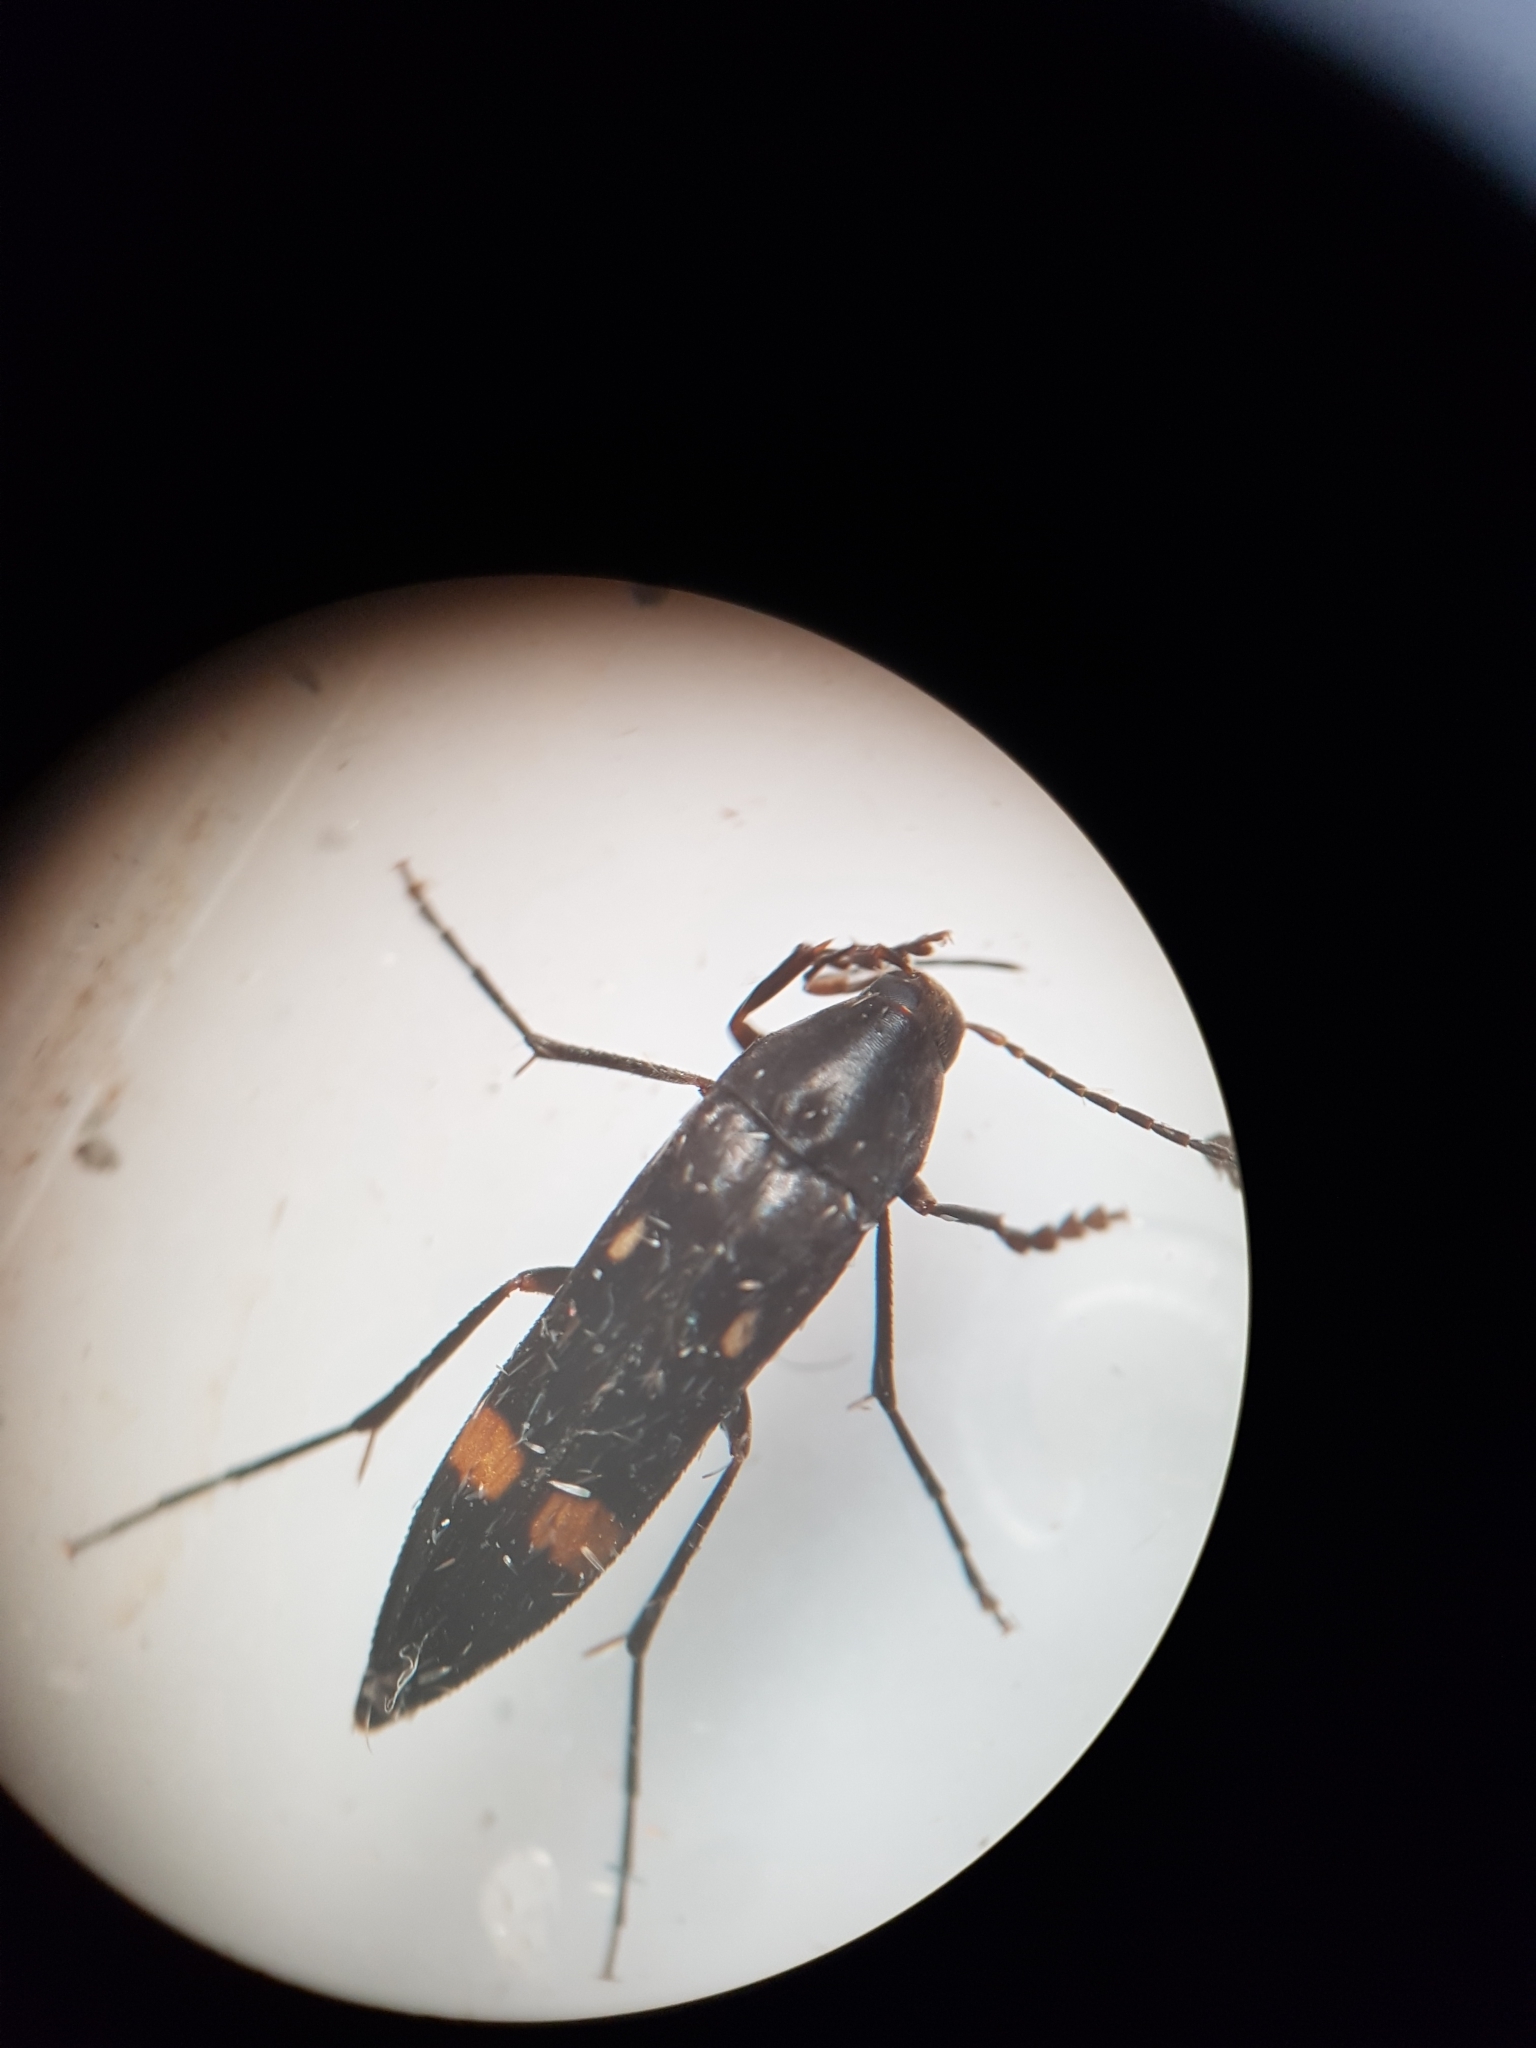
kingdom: Animalia
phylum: Arthropoda
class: Insecta
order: Coleoptera
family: Melandryidae
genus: Ctenoplectron
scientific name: Ctenoplectron
